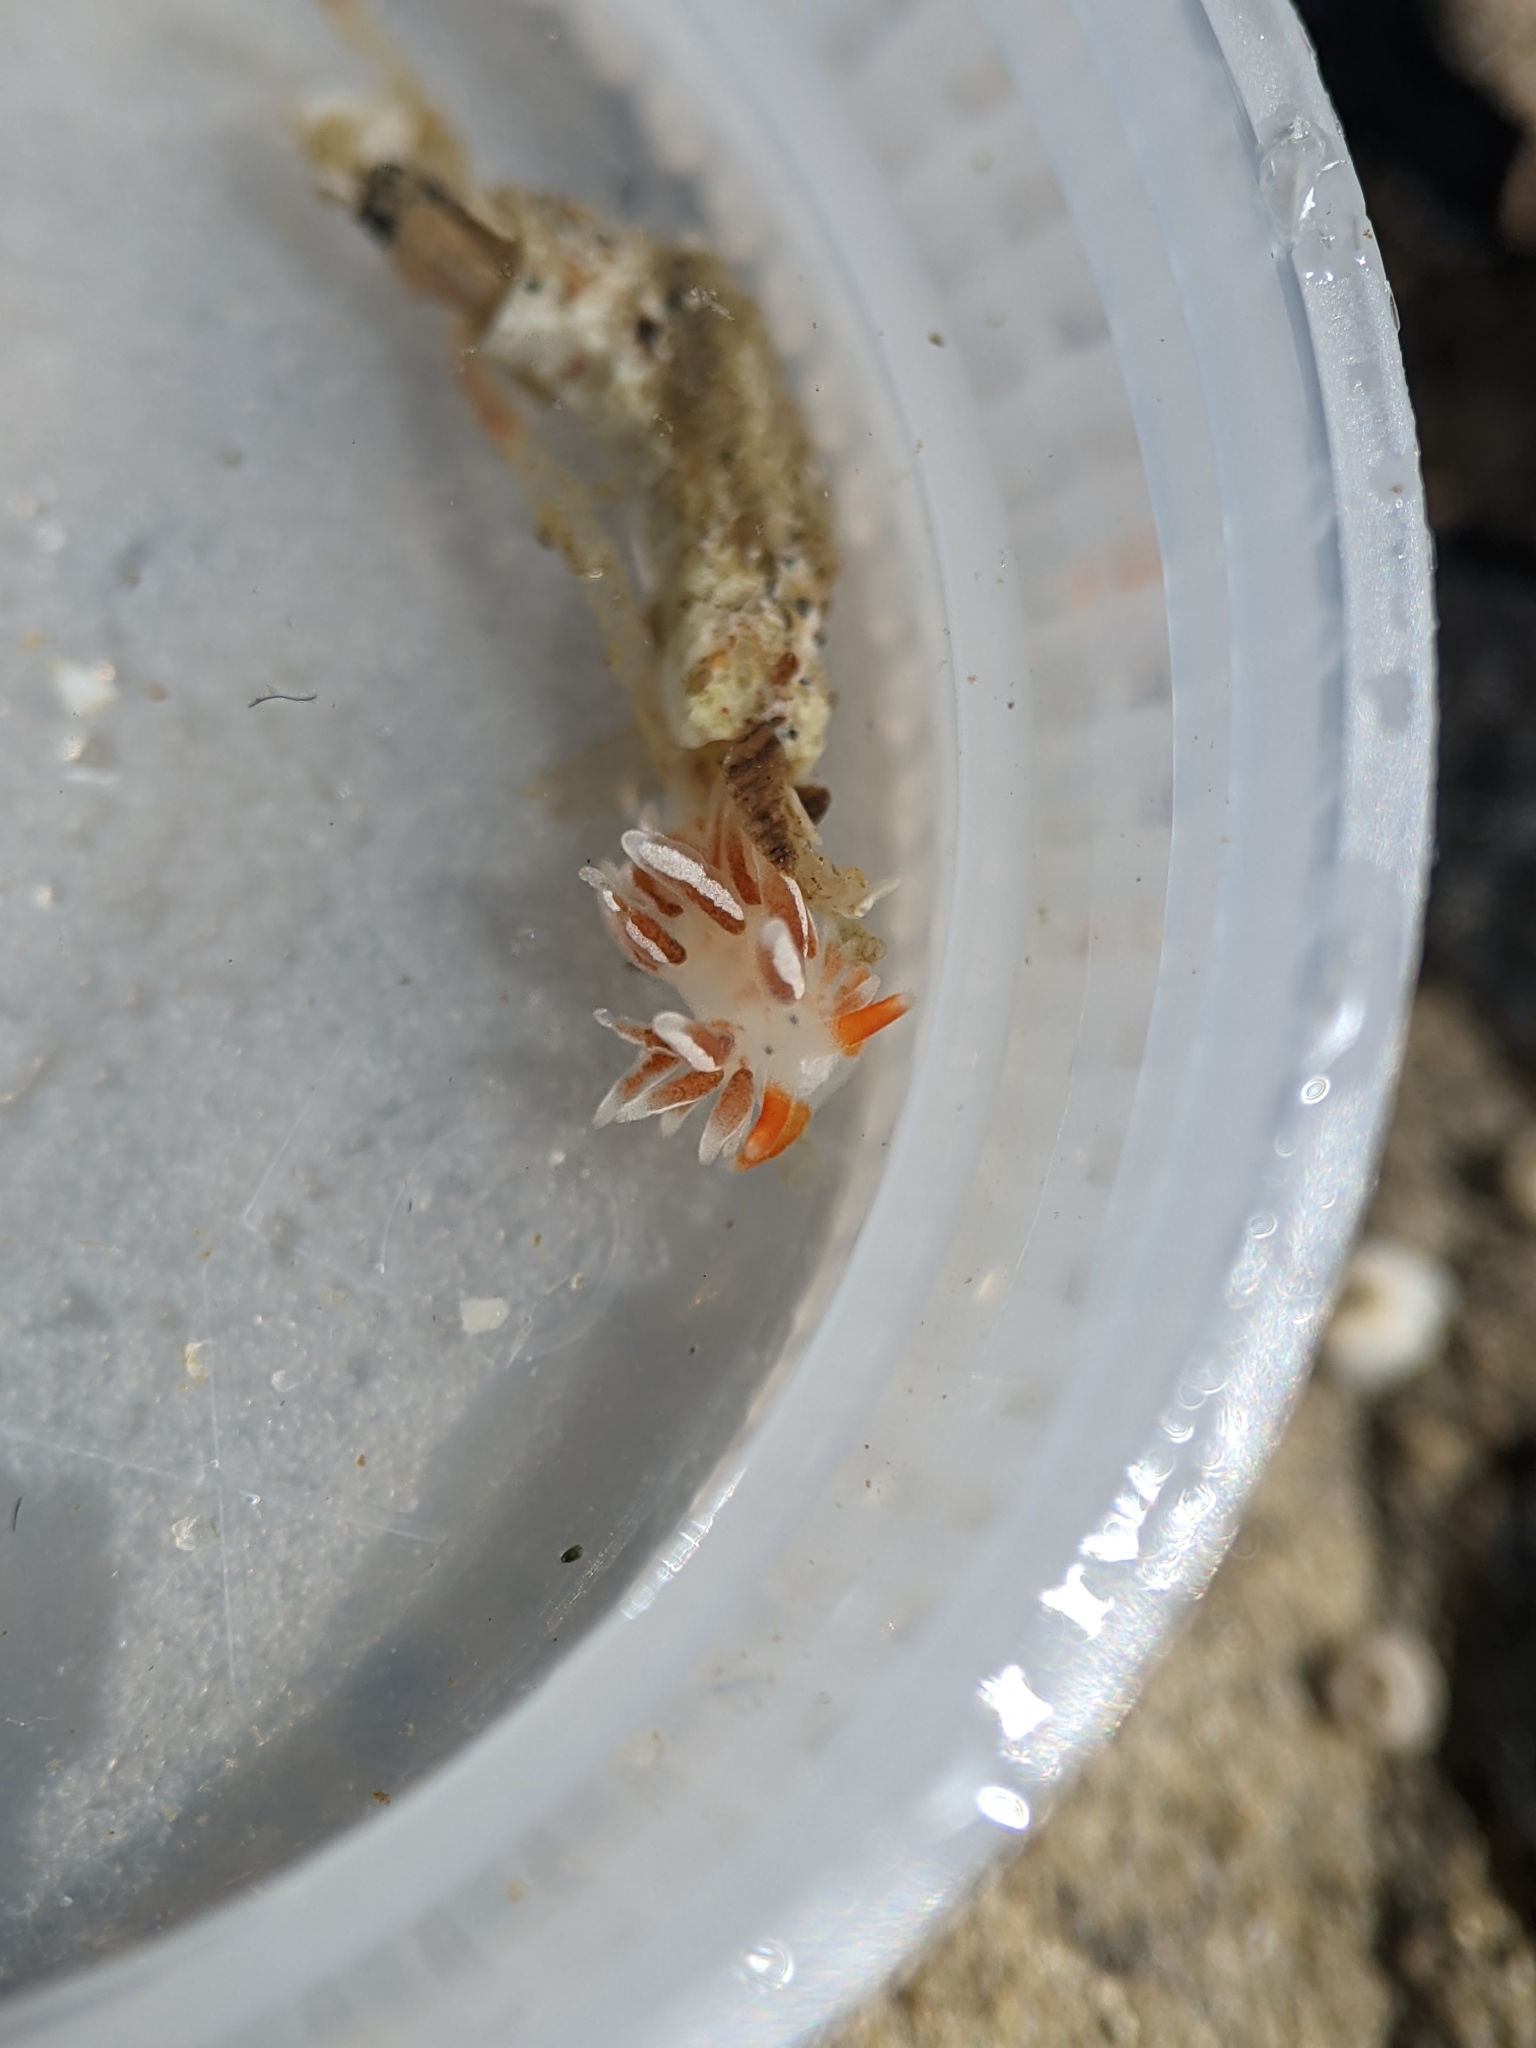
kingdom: Animalia
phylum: Mollusca
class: Gastropoda
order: Nudibranchia
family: Trinchesiidae
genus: Catriona
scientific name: Catriona spadix
